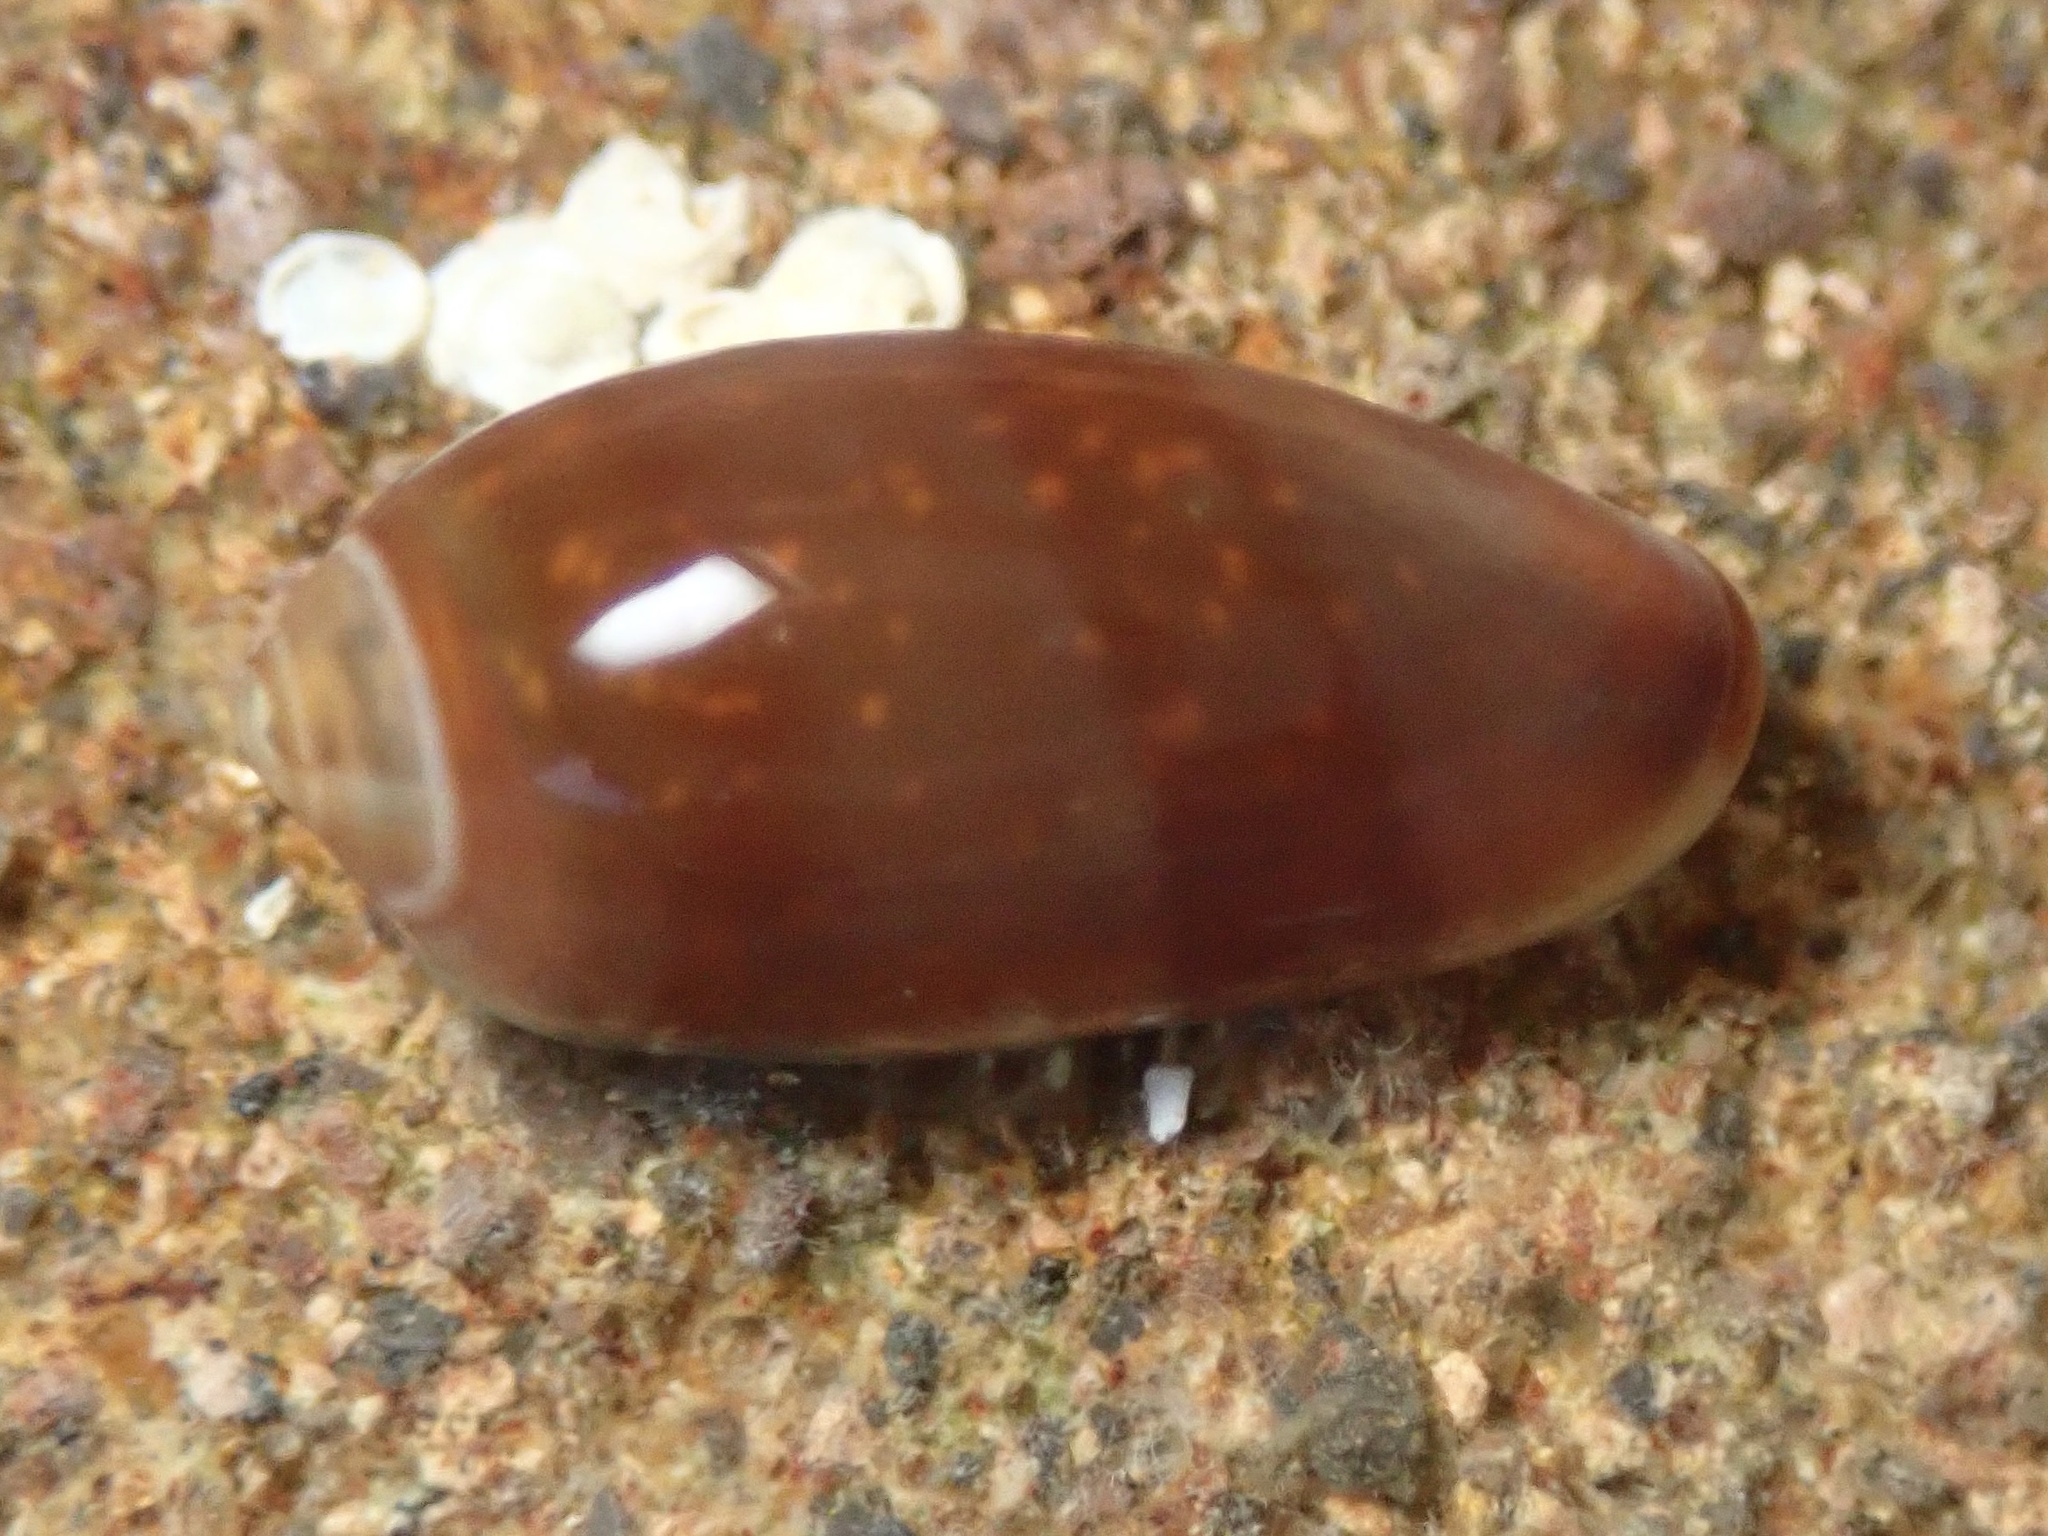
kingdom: Animalia
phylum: Mollusca
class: Gastropoda
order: Neogastropoda
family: Marginellidae
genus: Volvarina
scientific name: Volvarina taeniolata
